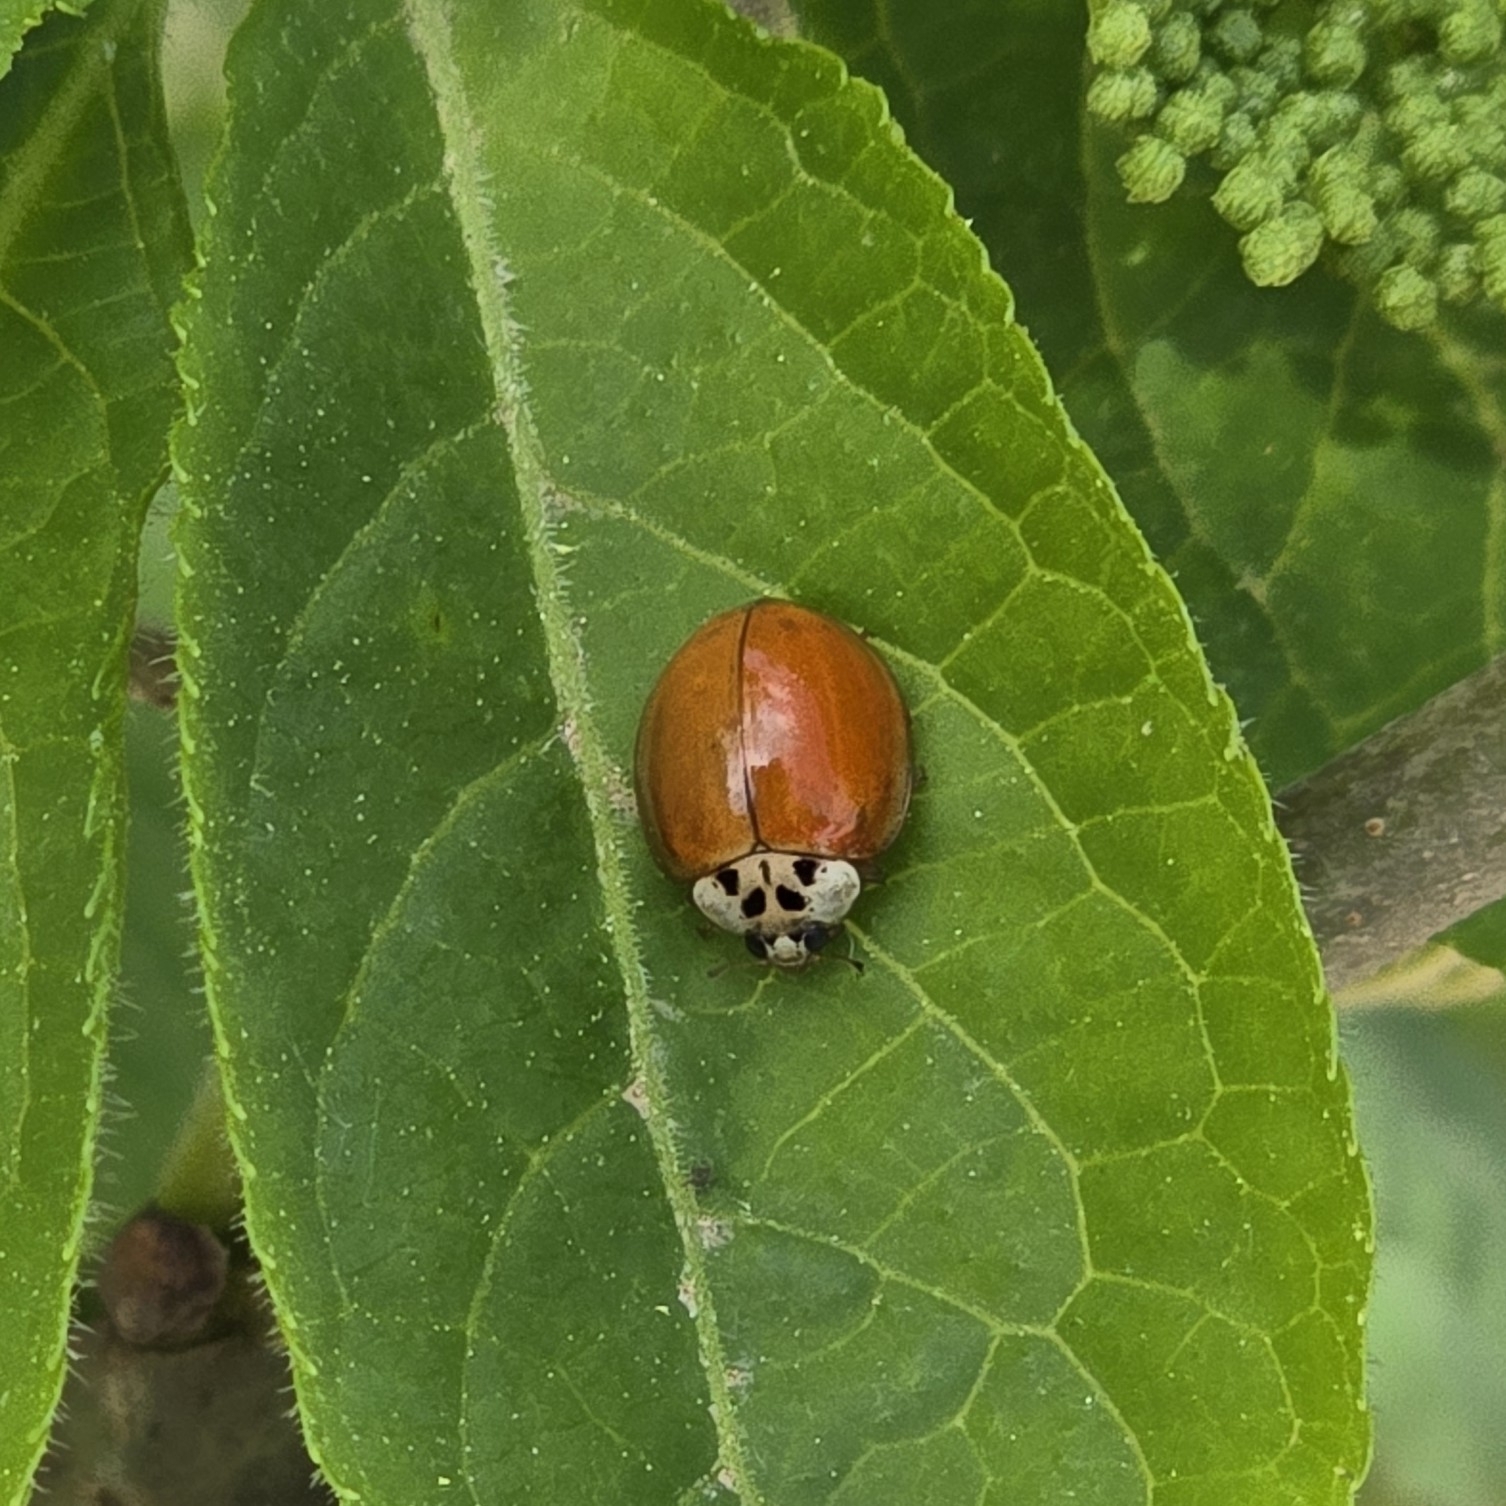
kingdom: Animalia
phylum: Arthropoda
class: Insecta
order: Coleoptera
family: Coccinellidae
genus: Harmonia
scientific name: Harmonia axyridis
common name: Harlequin ladybird
